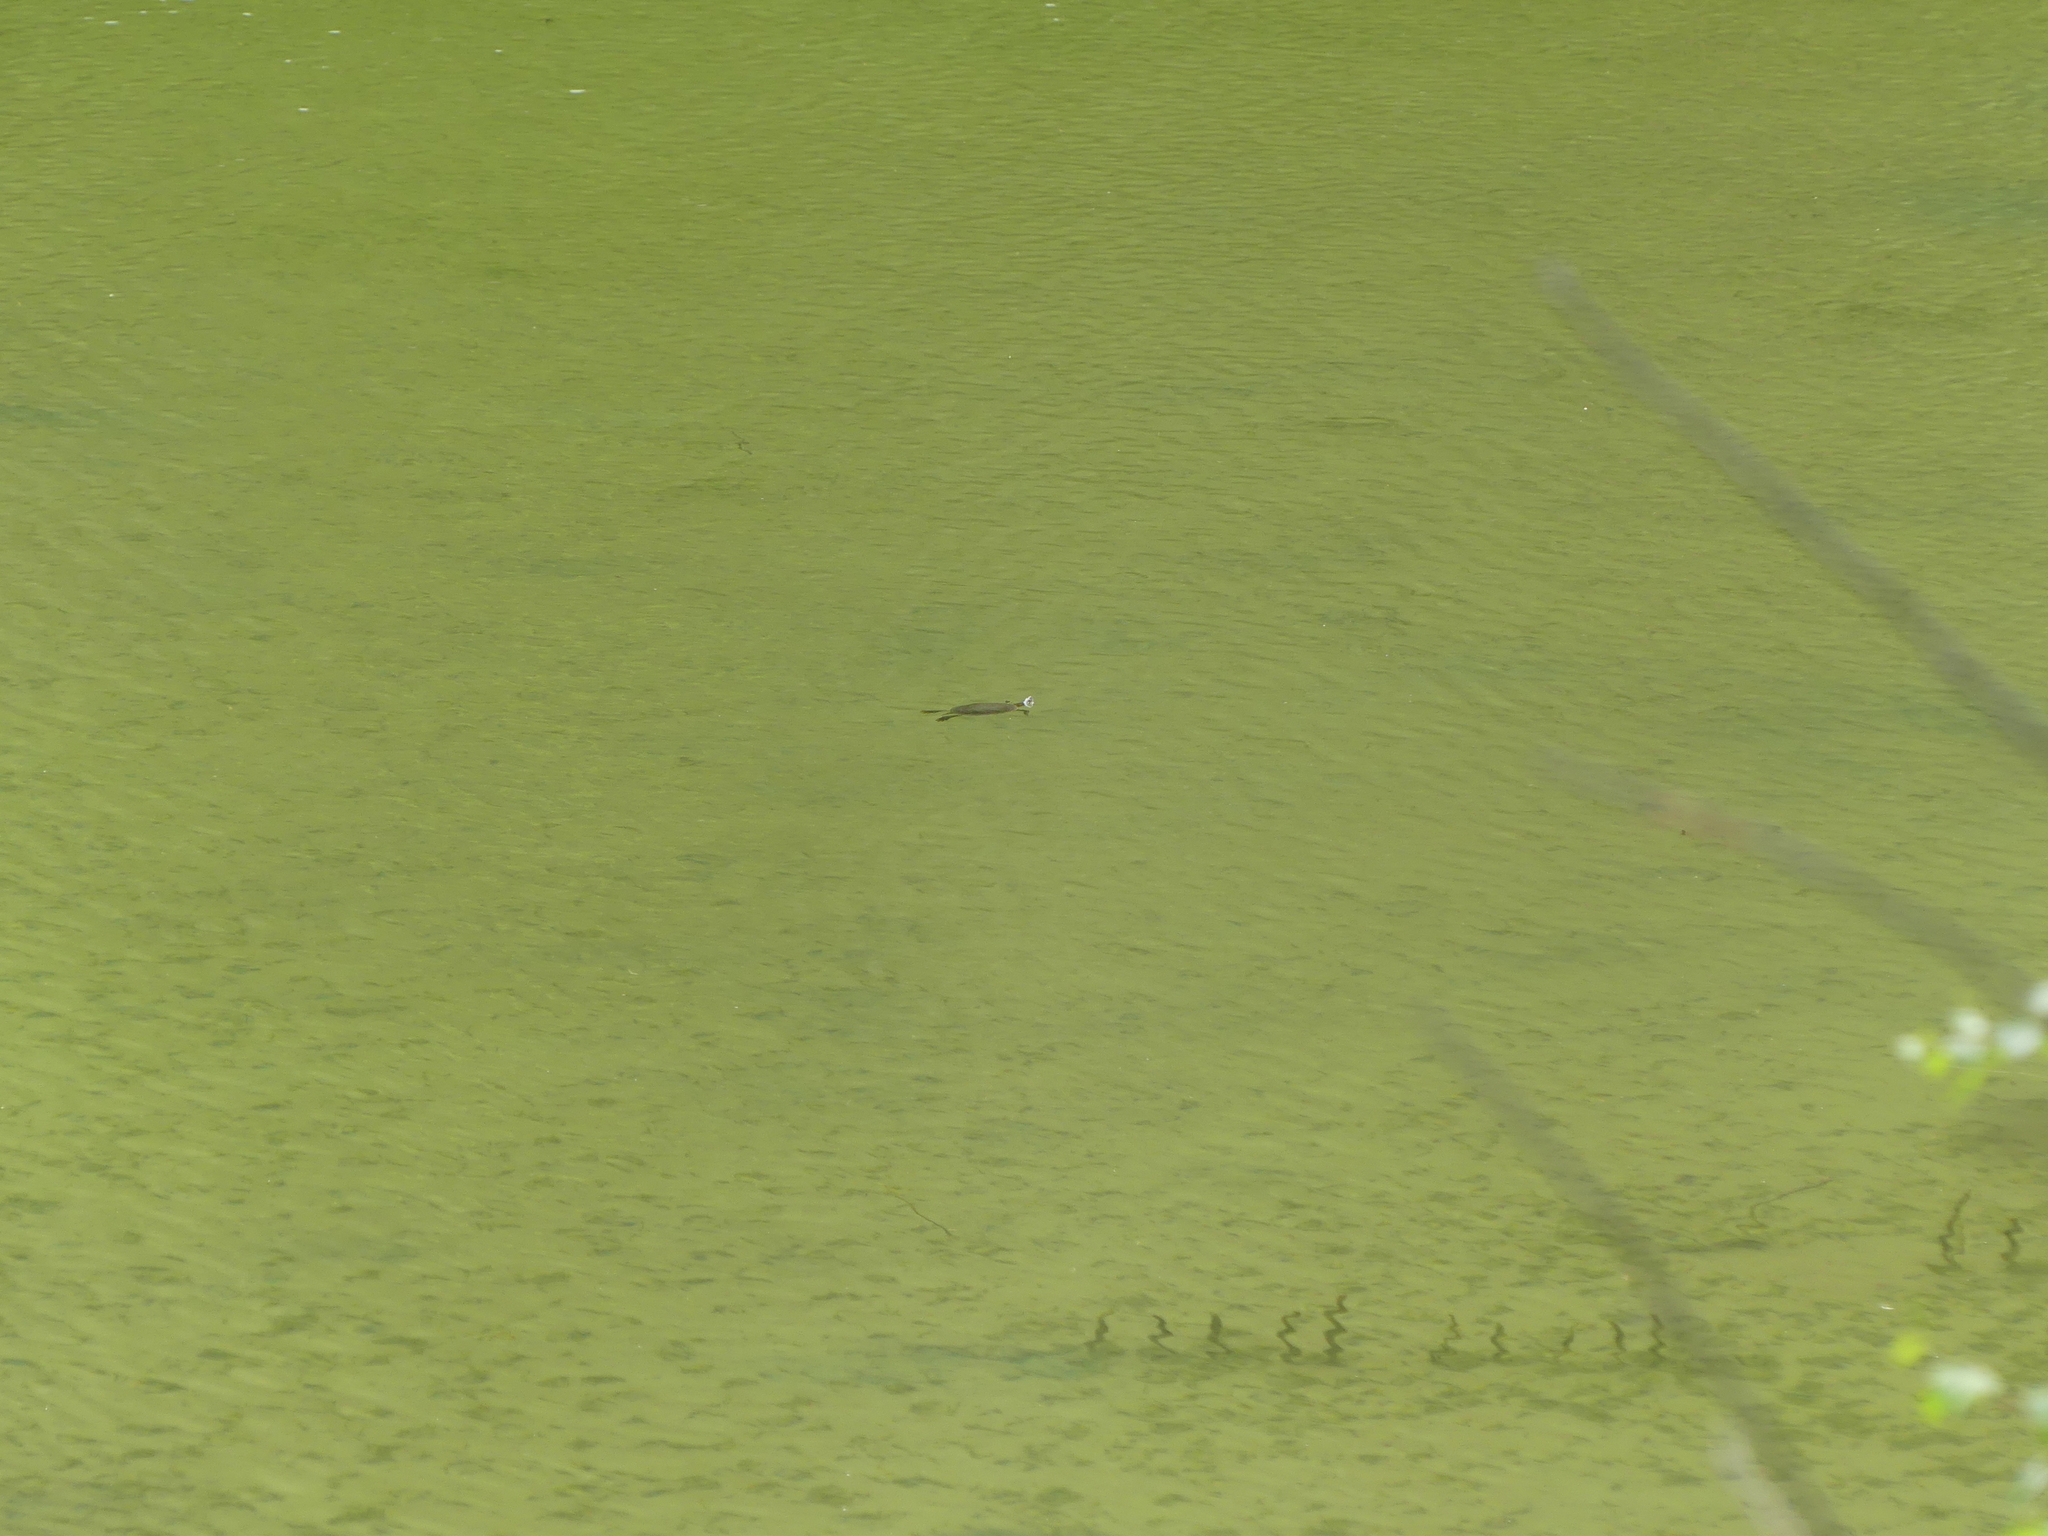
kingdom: Animalia
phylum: Chordata
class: Testudines
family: Emydidae
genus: Chrysemys
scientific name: Chrysemys picta
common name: Painted turtle
